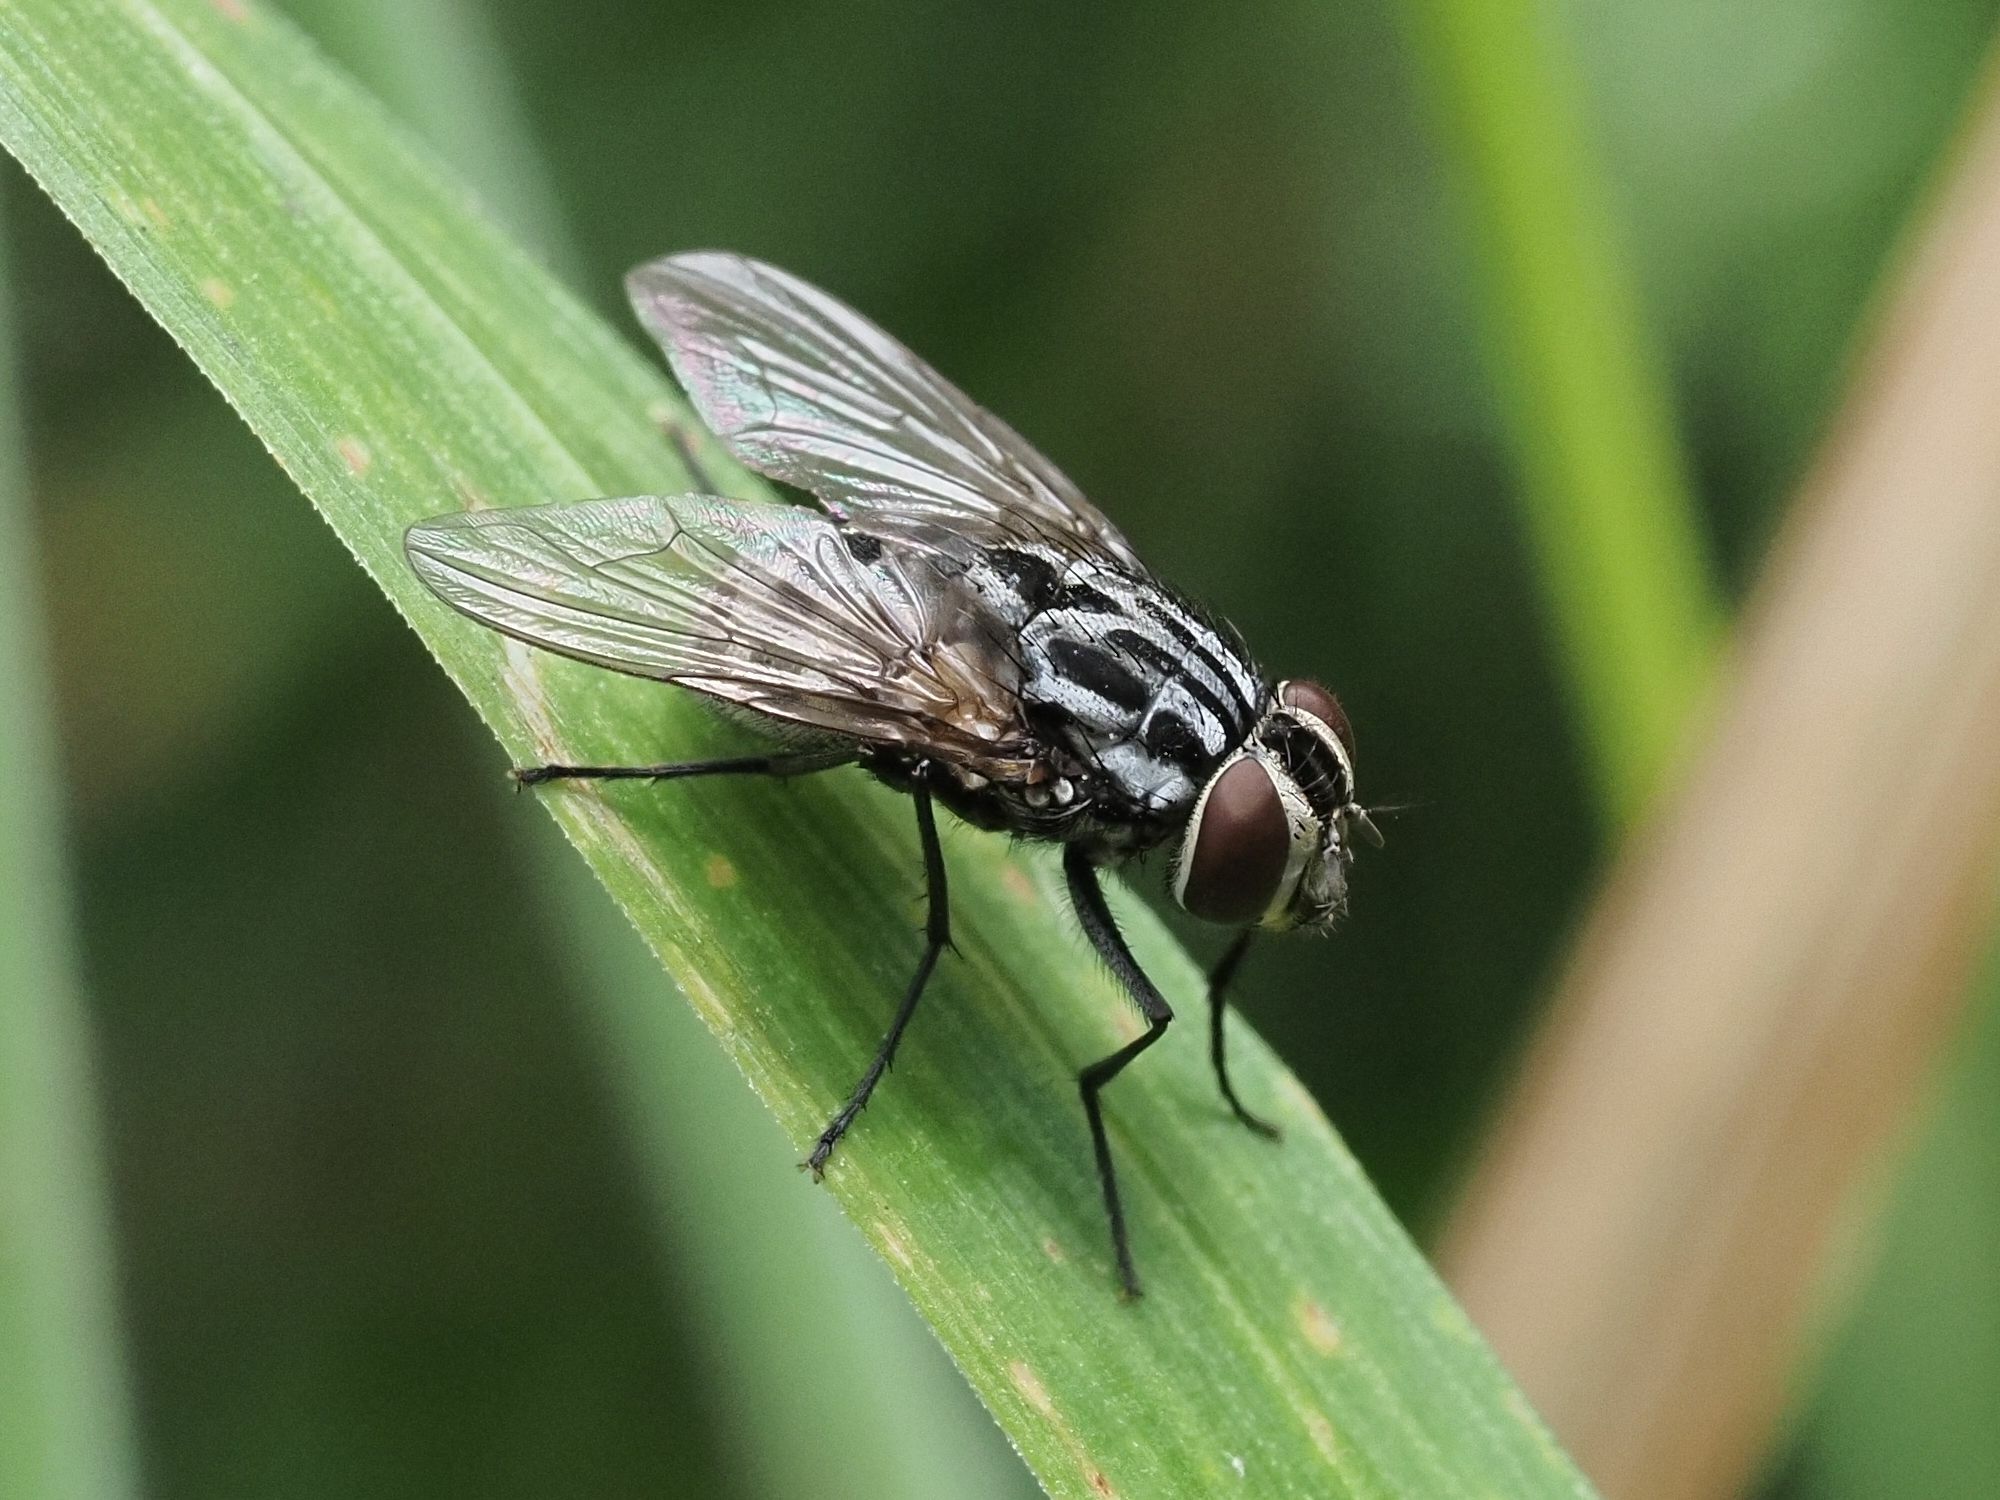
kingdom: Animalia
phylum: Arthropoda
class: Insecta
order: Diptera
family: Muscidae
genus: Graphomya
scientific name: Graphomya maculata
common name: Muscid fly
